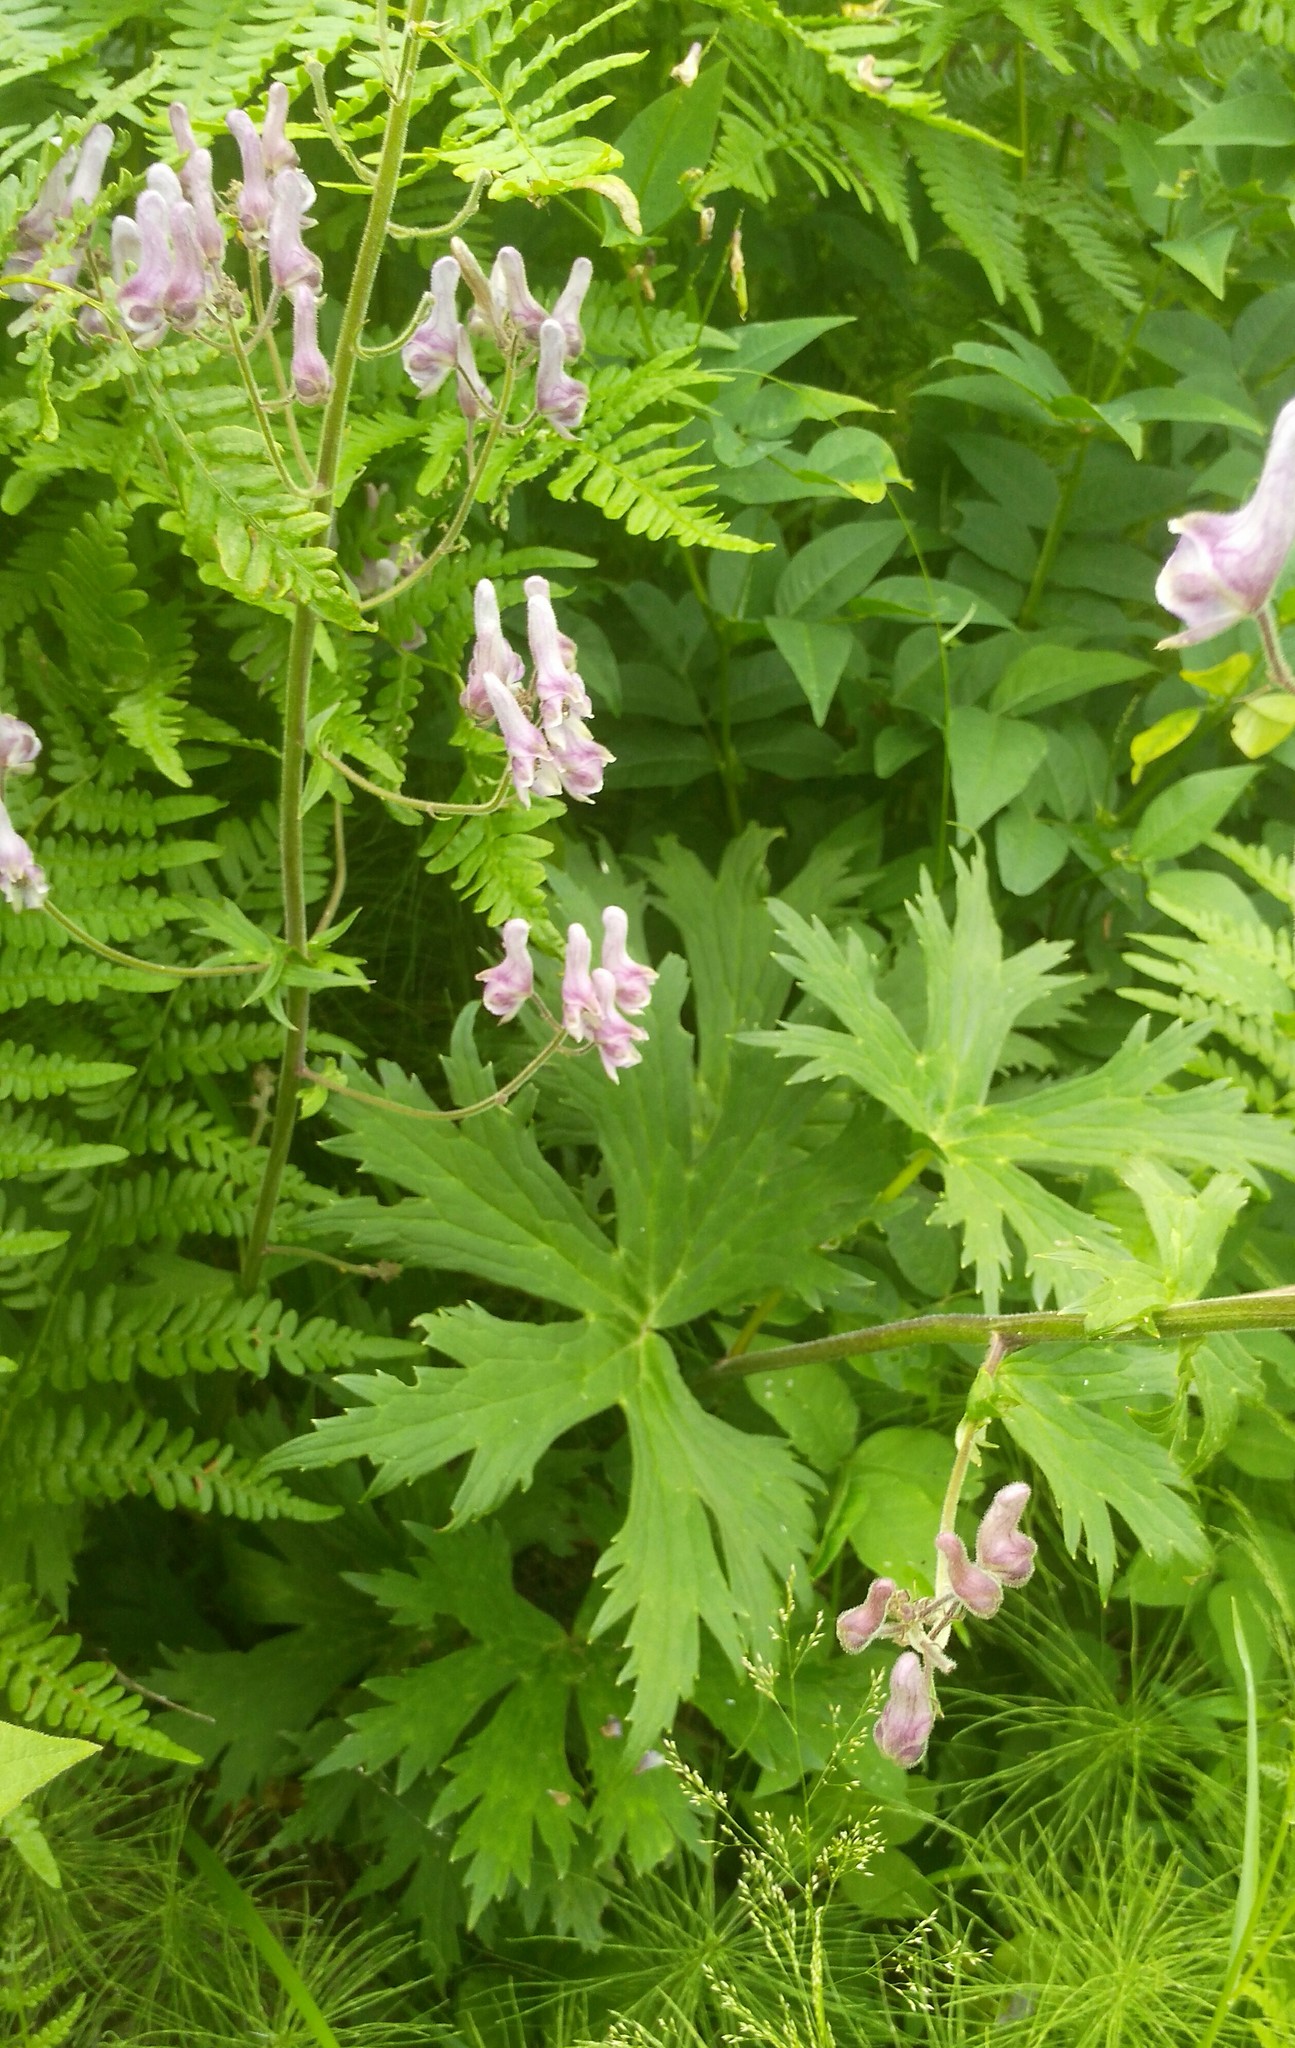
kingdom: Plantae
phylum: Tracheophyta
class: Magnoliopsida
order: Ranunculales
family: Ranunculaceae
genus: Aconitum
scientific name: Aconitum septentrionale
